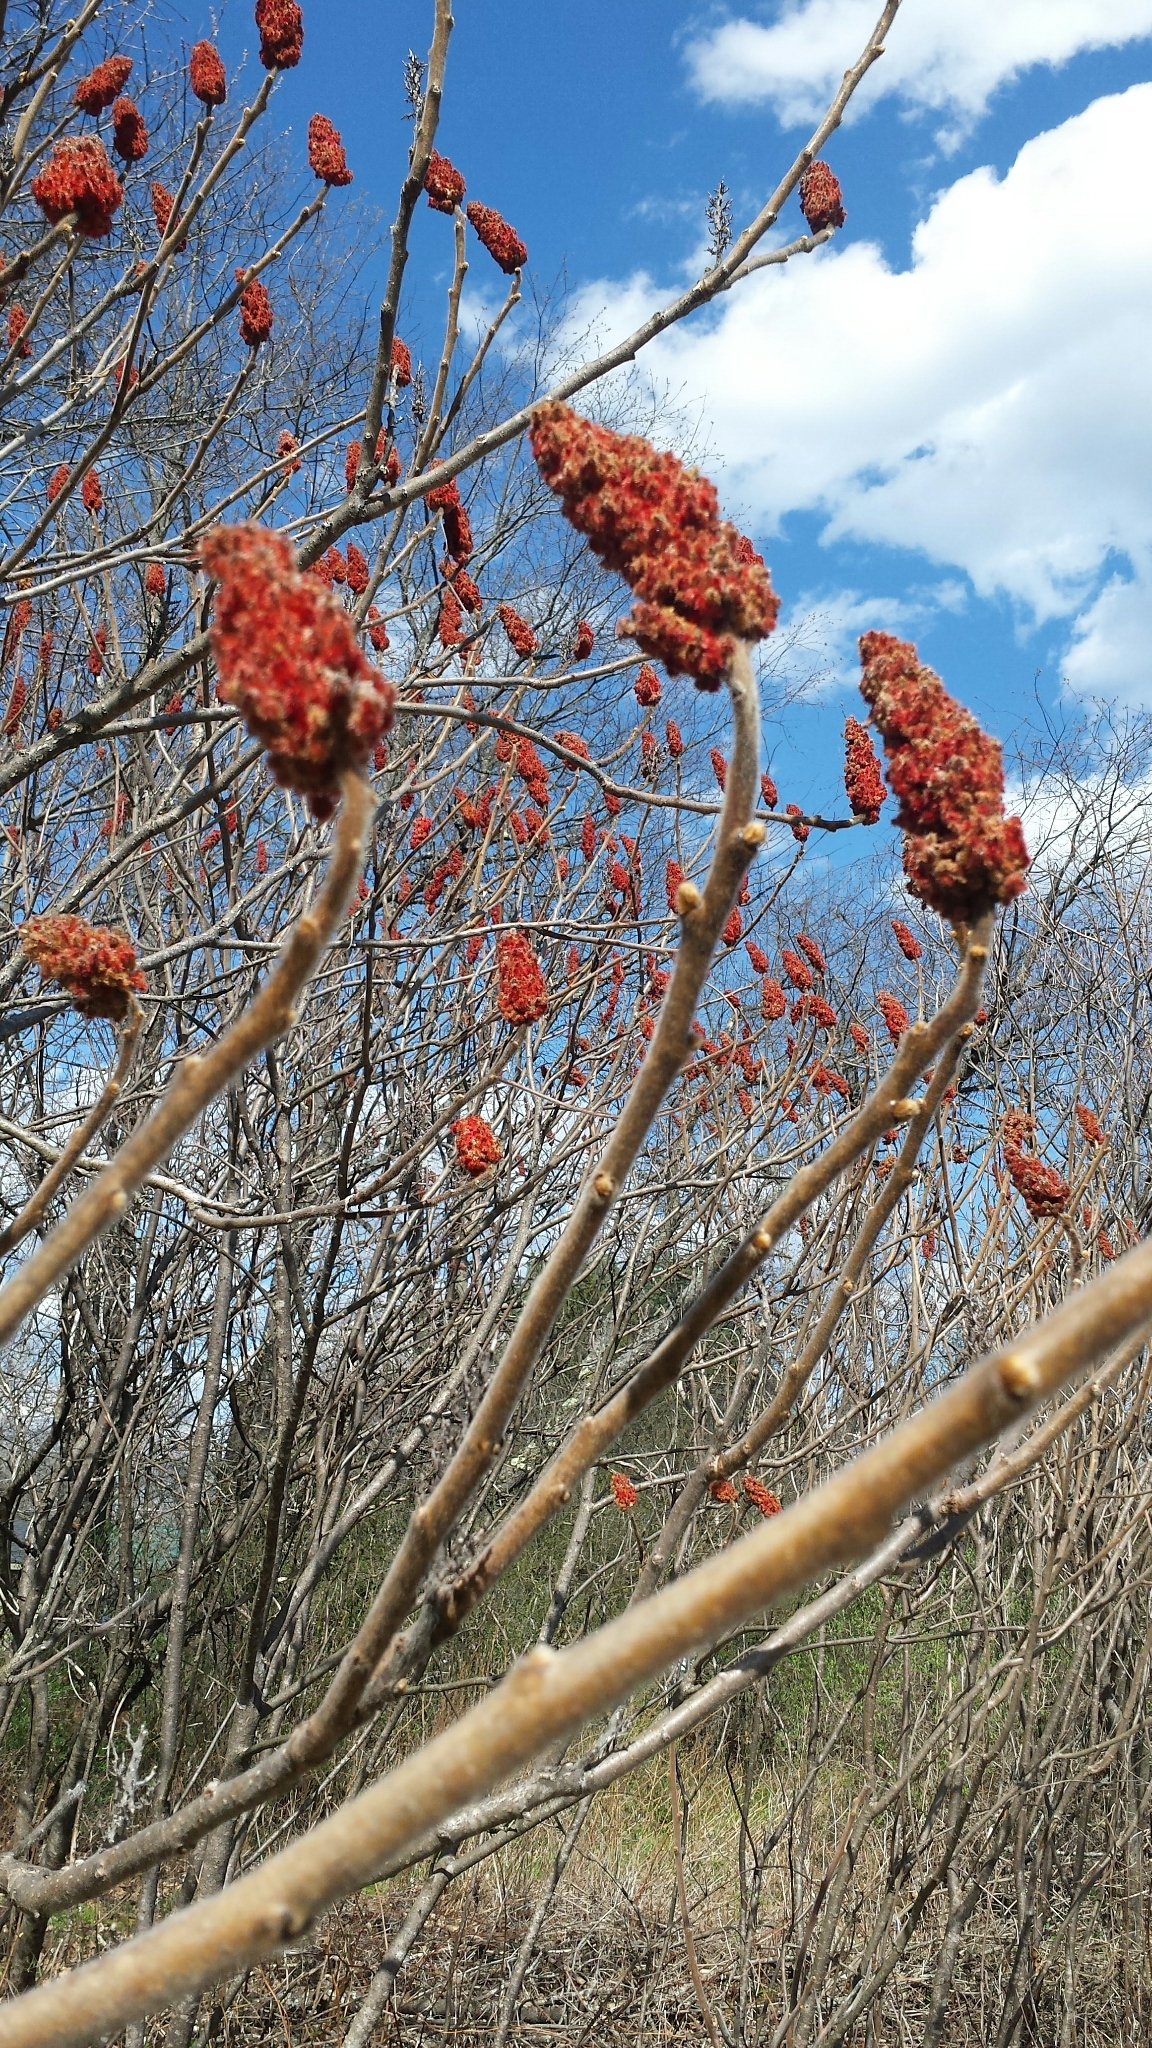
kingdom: Plantae
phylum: Tracheophyta
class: Magnoliopsida
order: Sapindales
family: Anacardiaceae
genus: Rhus
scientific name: Rhus typhina
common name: Staghorn sumac
